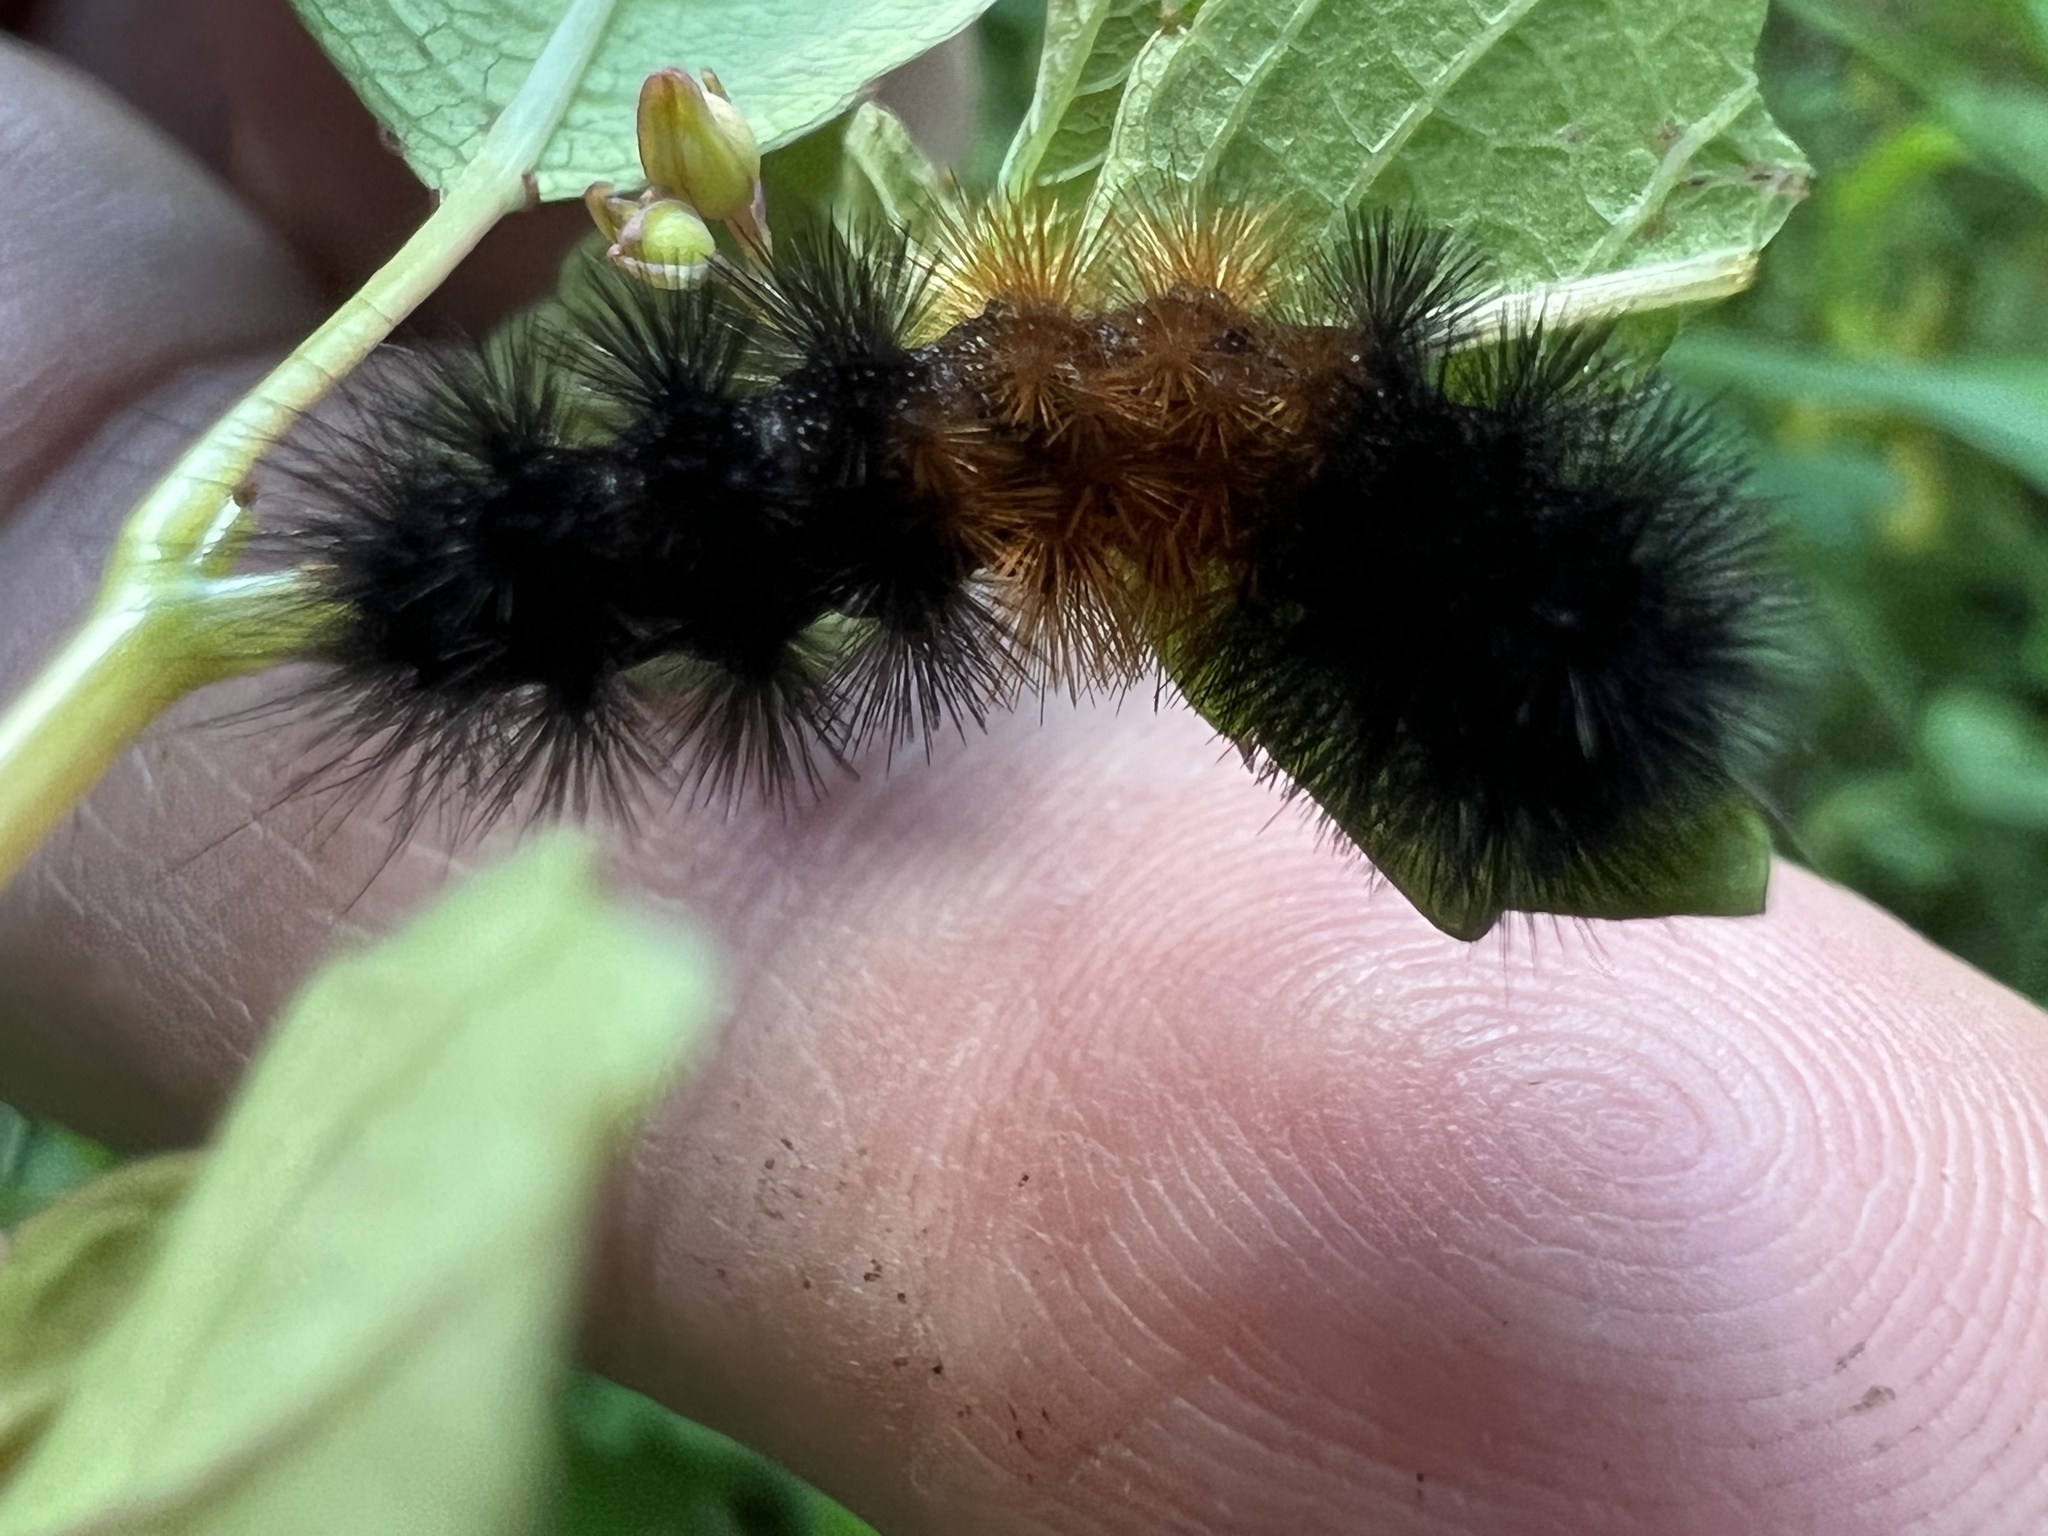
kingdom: Animalia
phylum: Arthropoda
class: Insecta
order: Lepidoptera
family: Erebidae
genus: Pyrrharctia
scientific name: Pyrrharctia isabella
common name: Isabella tiger moth
